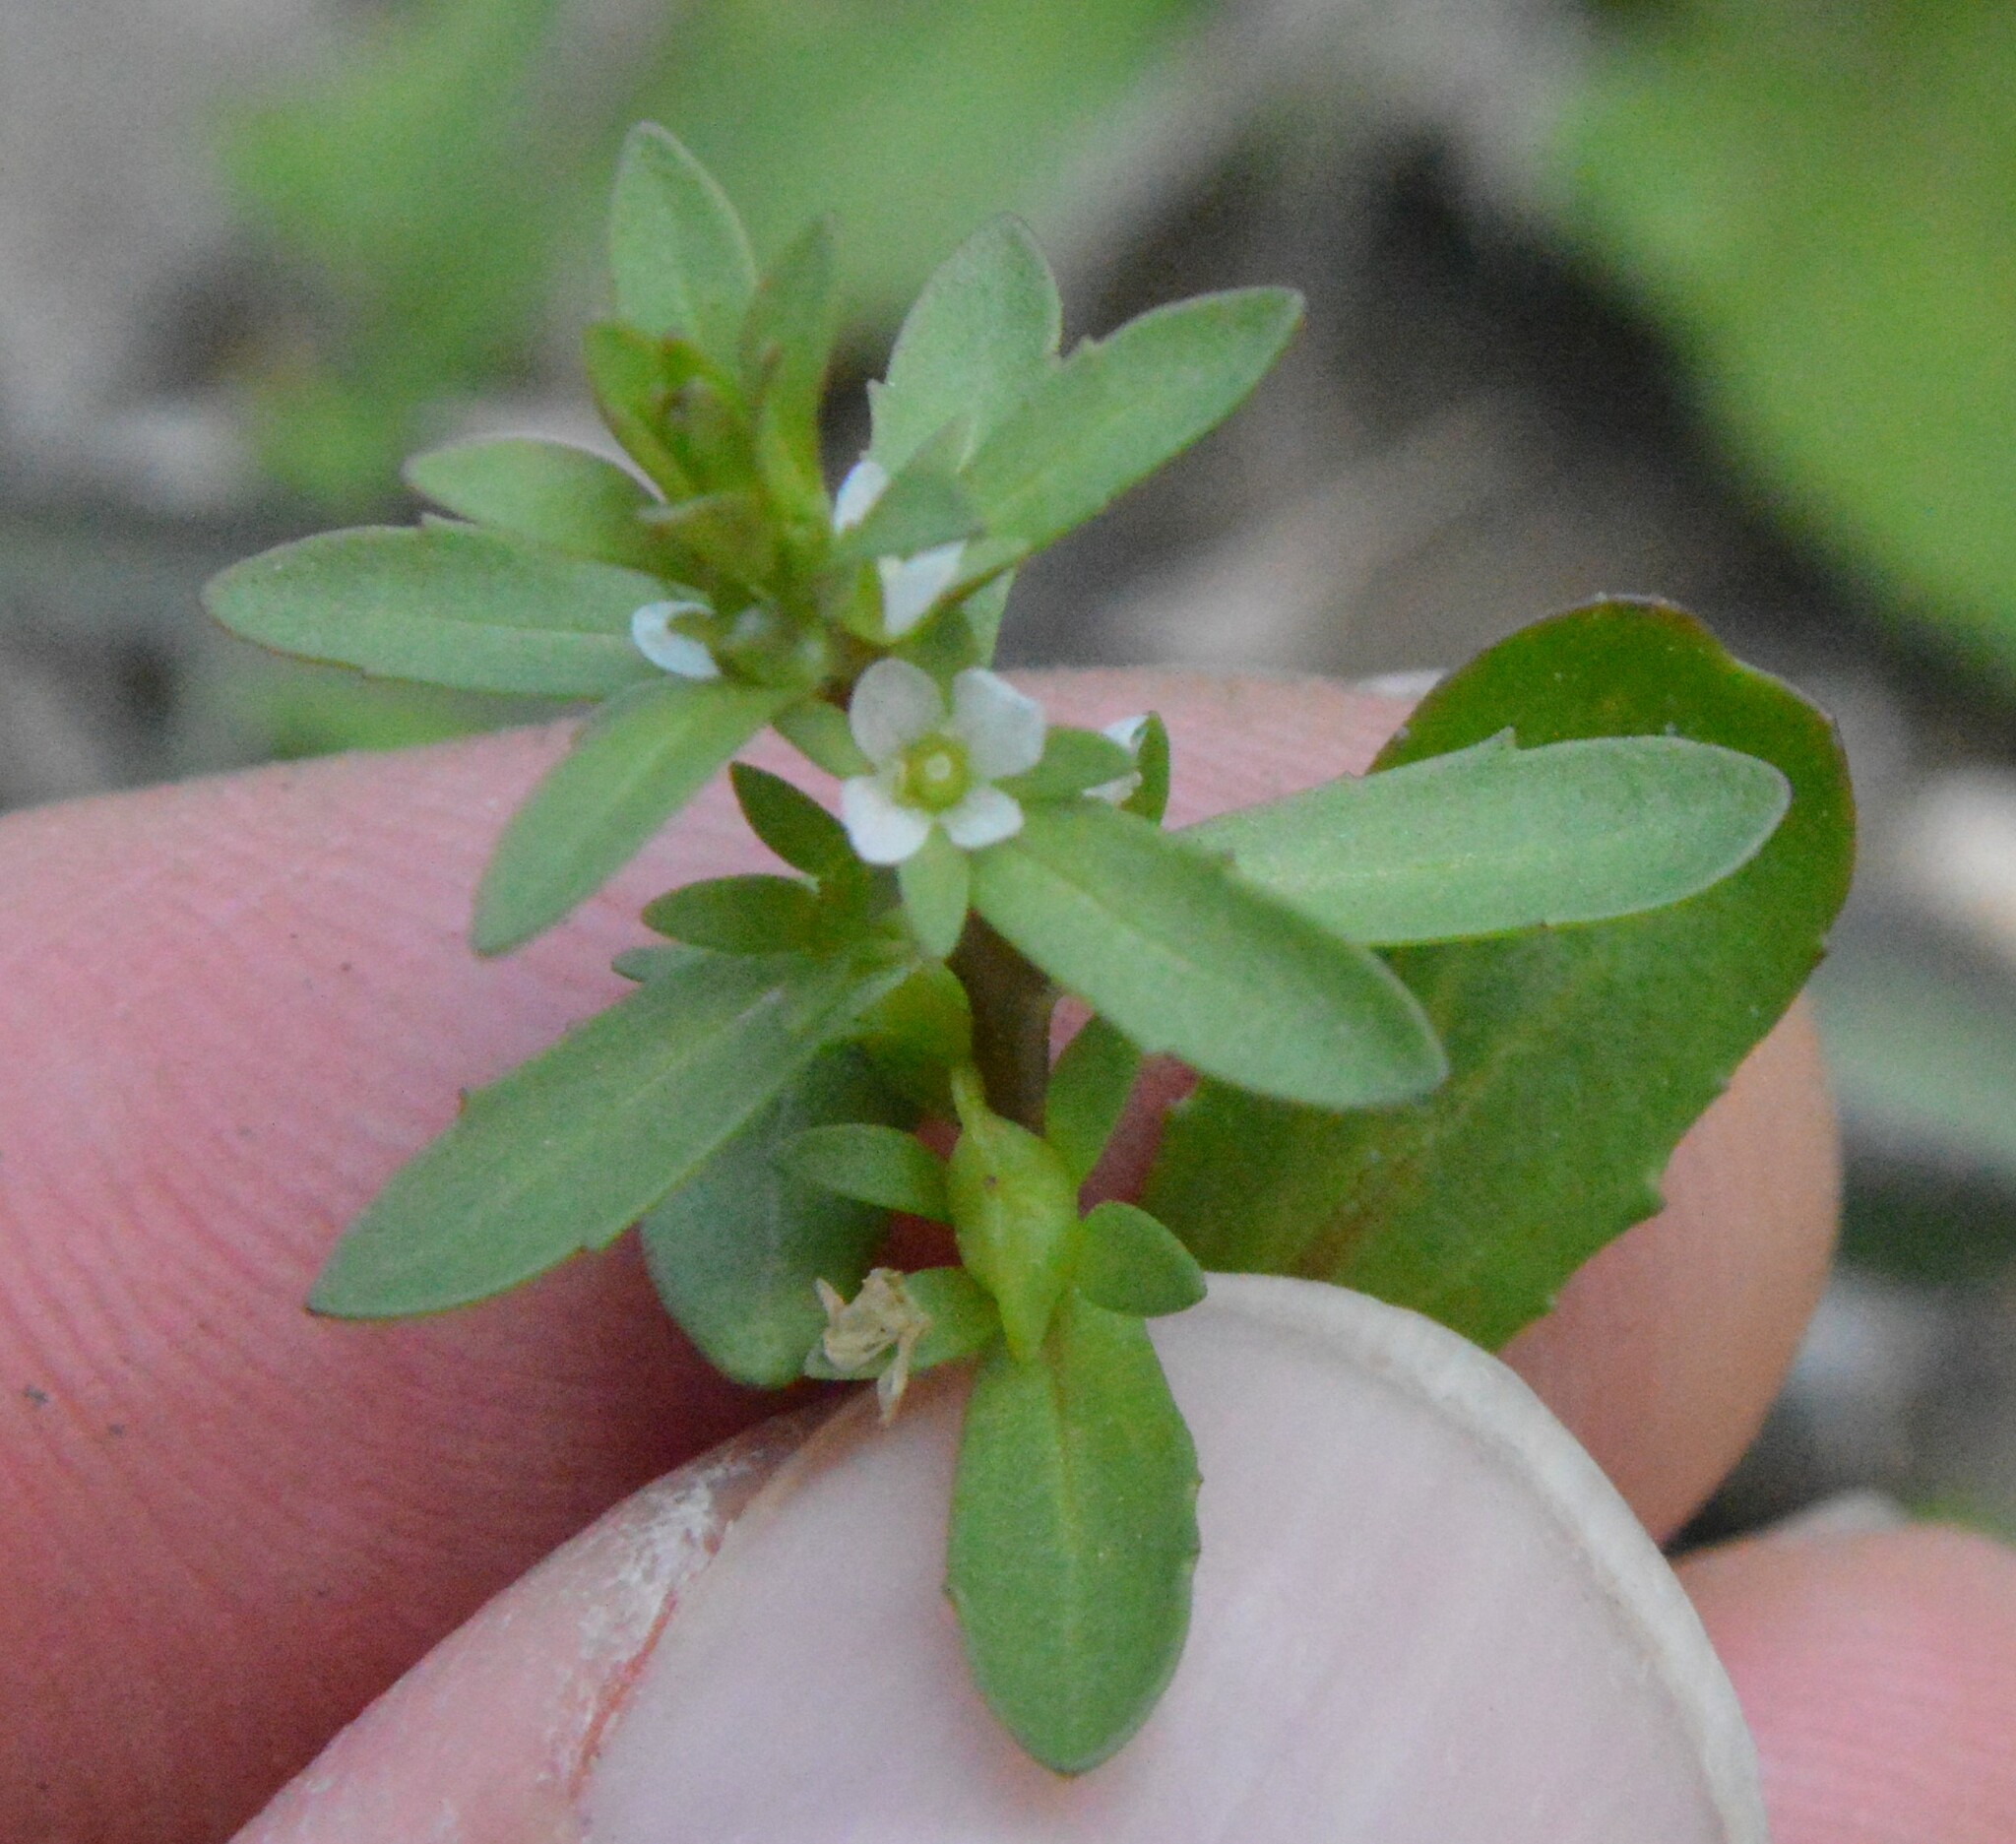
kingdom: Plantae
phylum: Tracheophyta
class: Magnoliopsida
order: Lamiales
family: Plantaginaceae
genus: Veronica
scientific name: Veronica peregrina
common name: Neckweed
